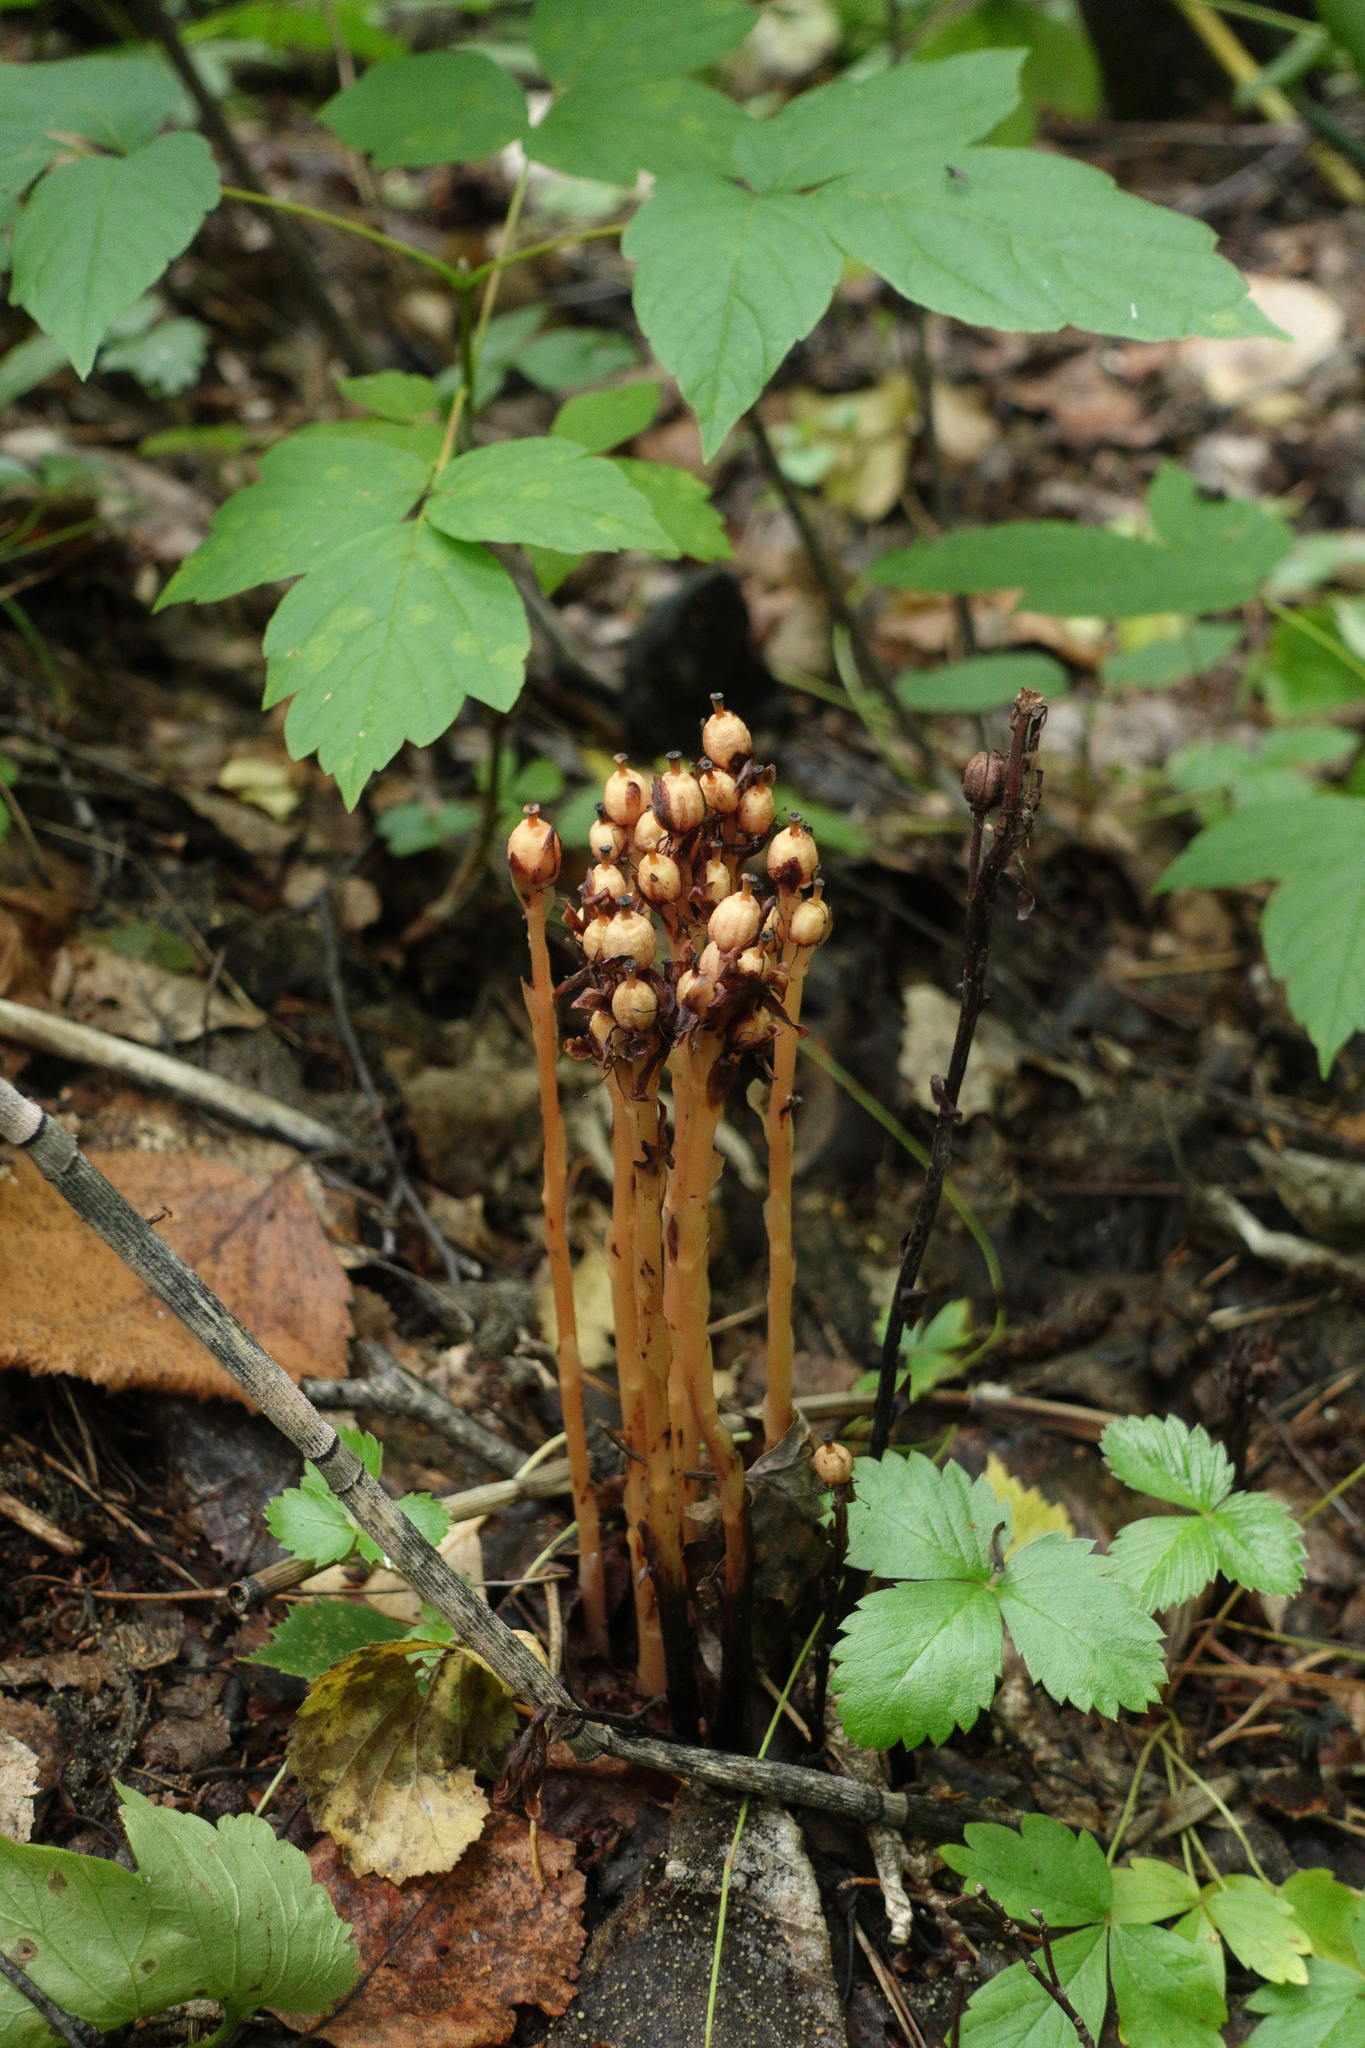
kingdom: Plantae
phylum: Tracheophyta
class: Magnoliopsida
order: Ericales
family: Ericaceae
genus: Hypopitys
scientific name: Hypopitys monotropa
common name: Yellow bird's-nest
